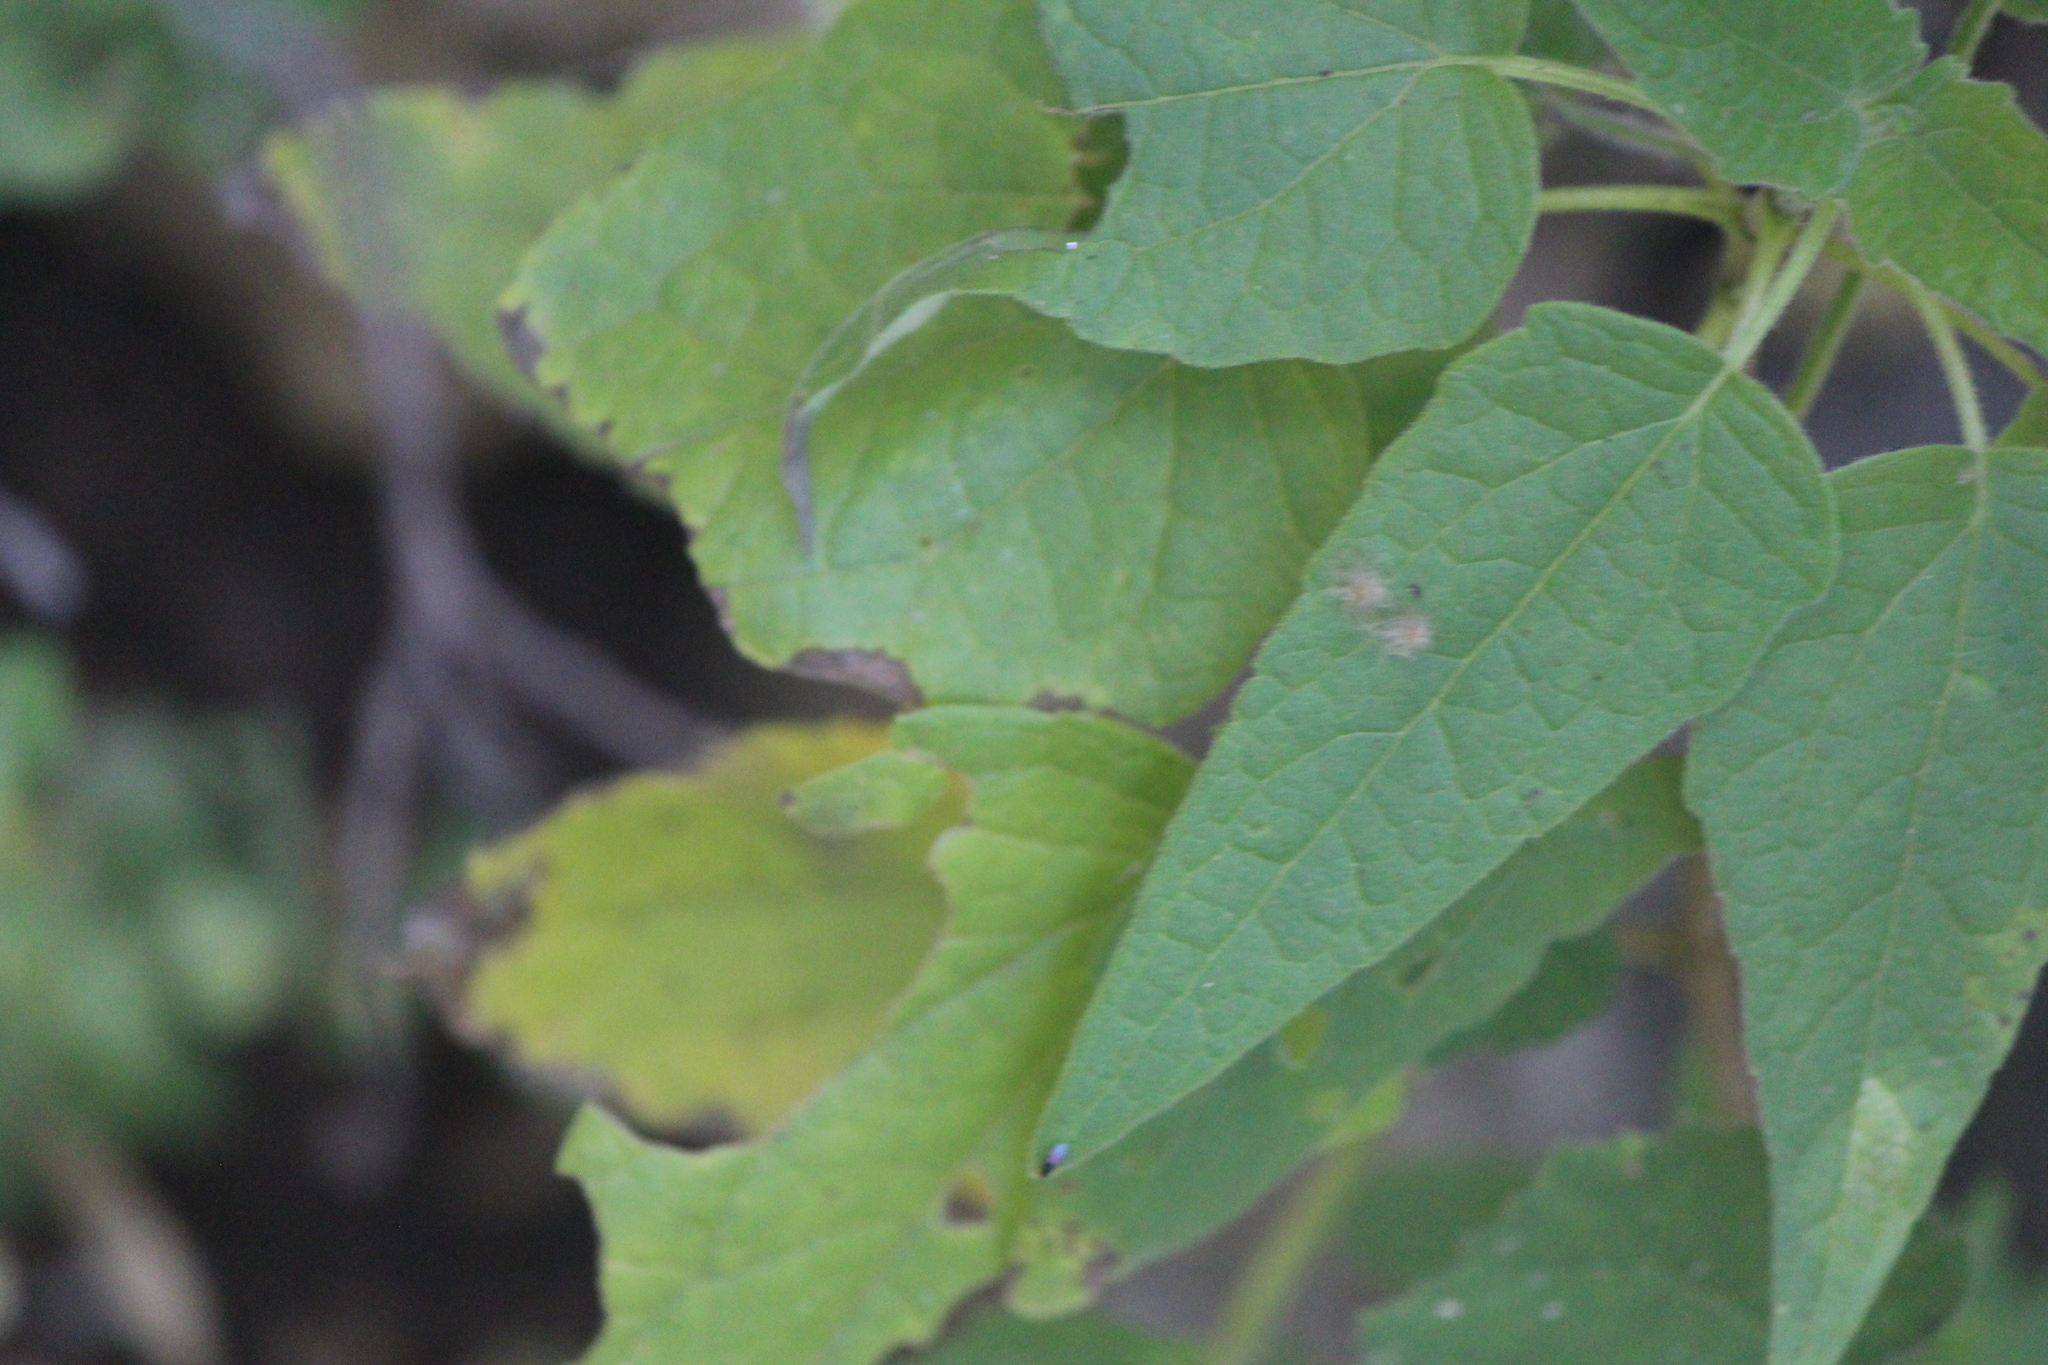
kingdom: Plantae
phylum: Tracheophyta
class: Magnoliopsida
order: Malvales
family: Malvaceae
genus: Anoda
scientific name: Anoda cristata
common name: Spurred anoda
